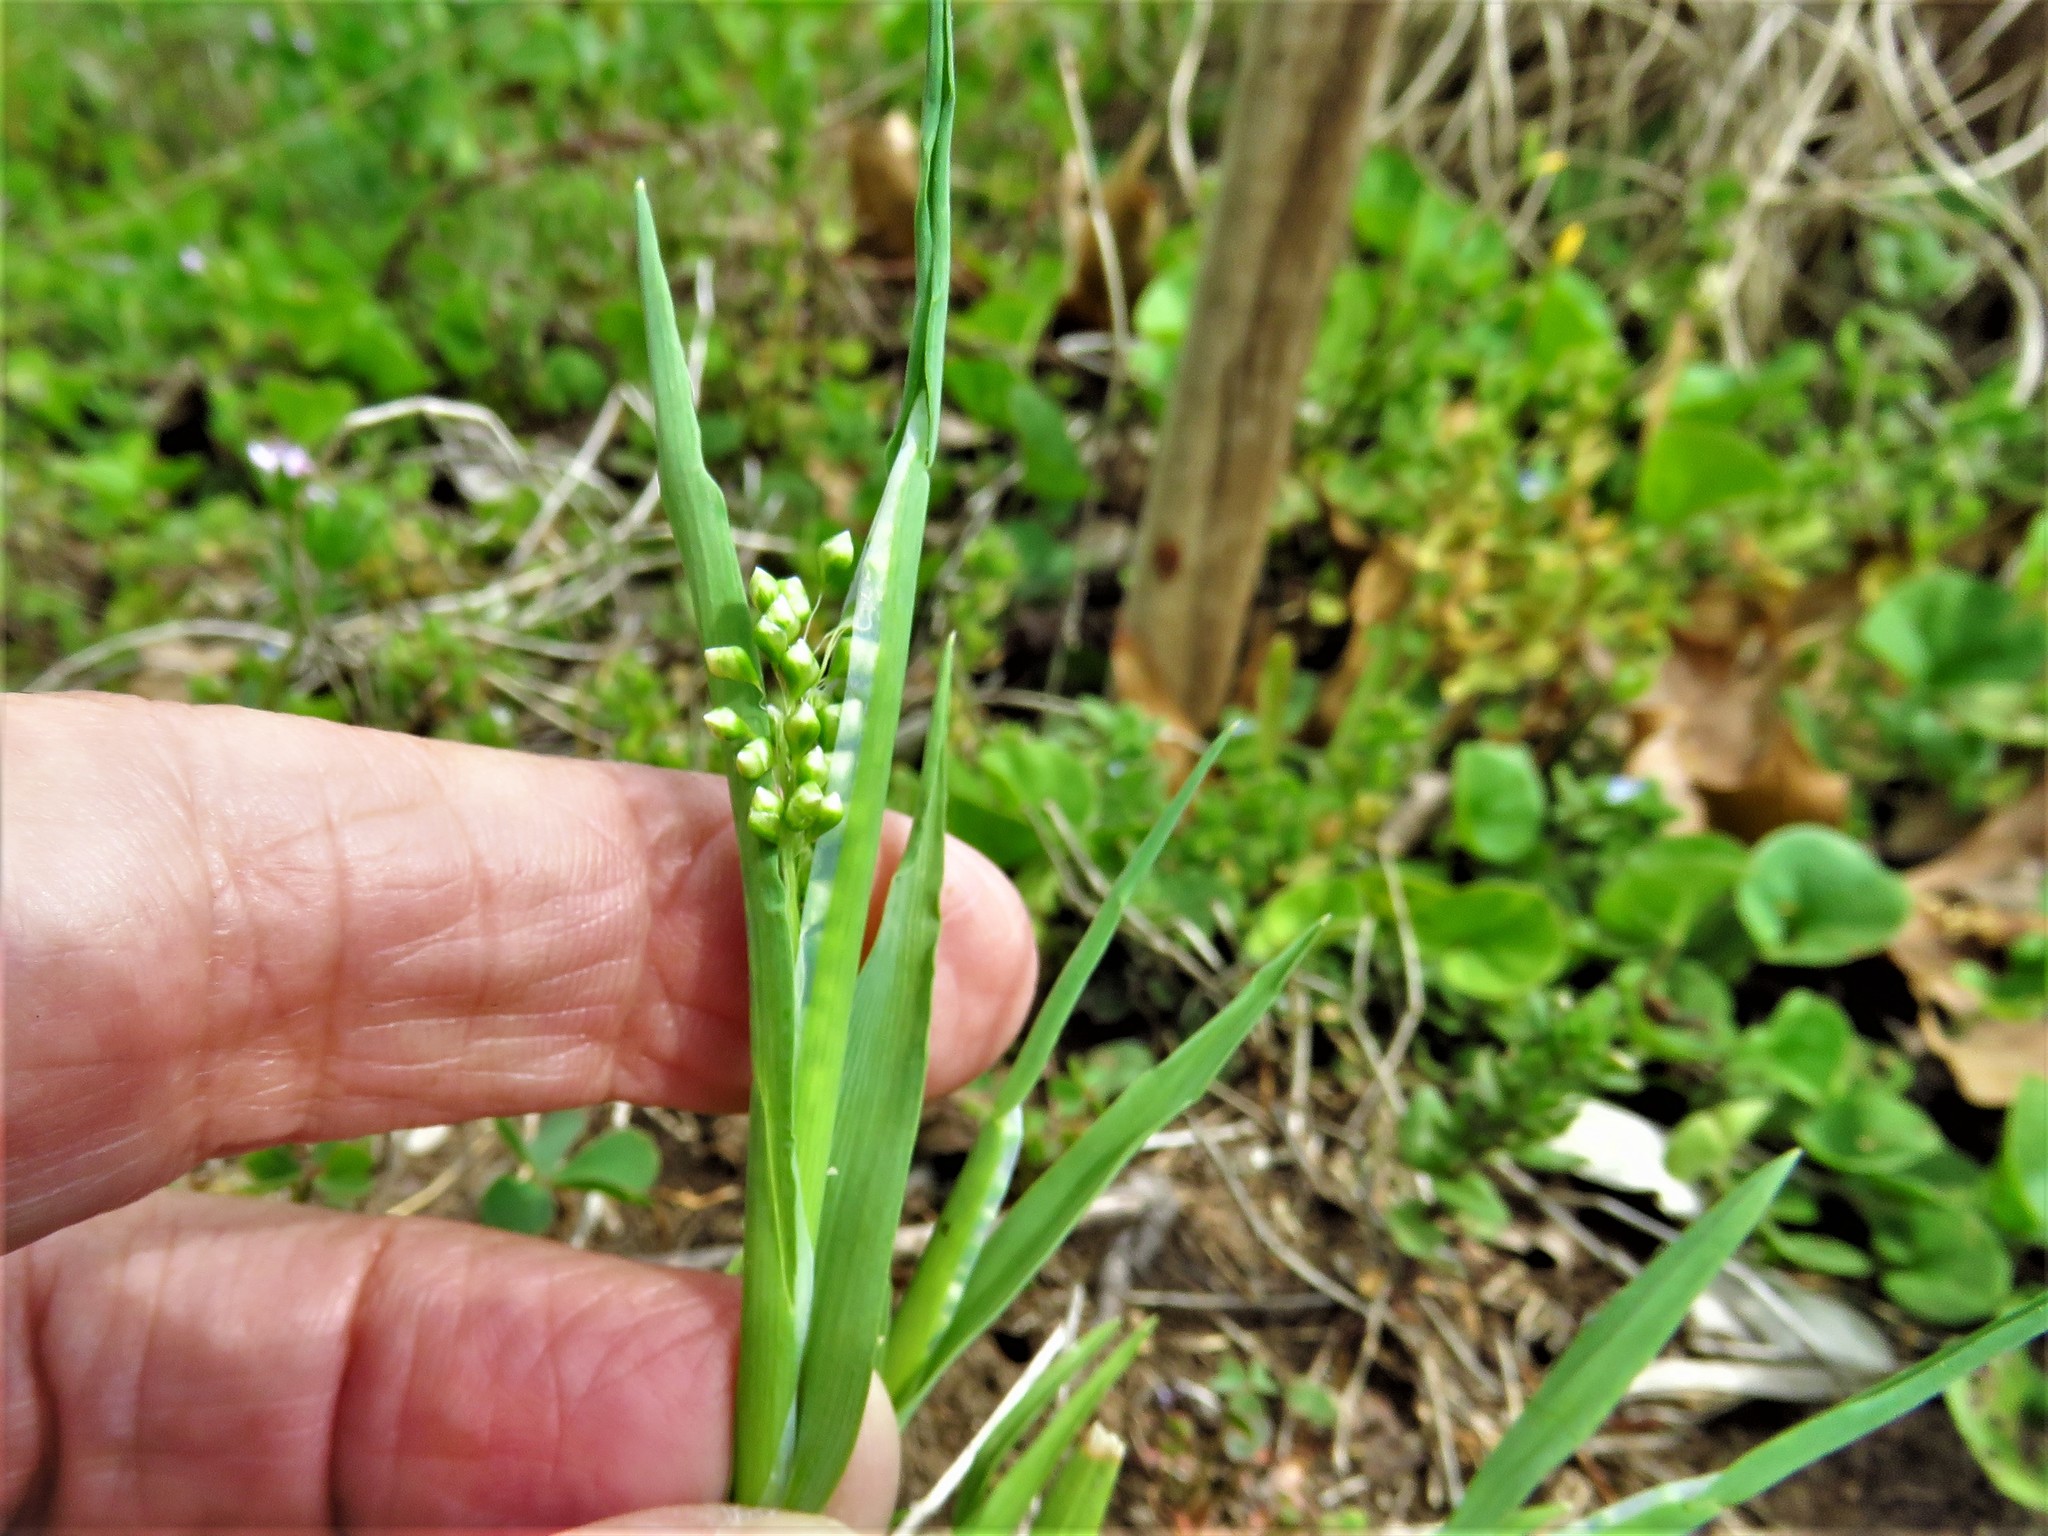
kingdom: Plantae
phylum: Tracheophyta
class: Liliopsida
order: Poales
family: Poaceae
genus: Briza
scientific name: Briza minor
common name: Lesser quaking-grass
